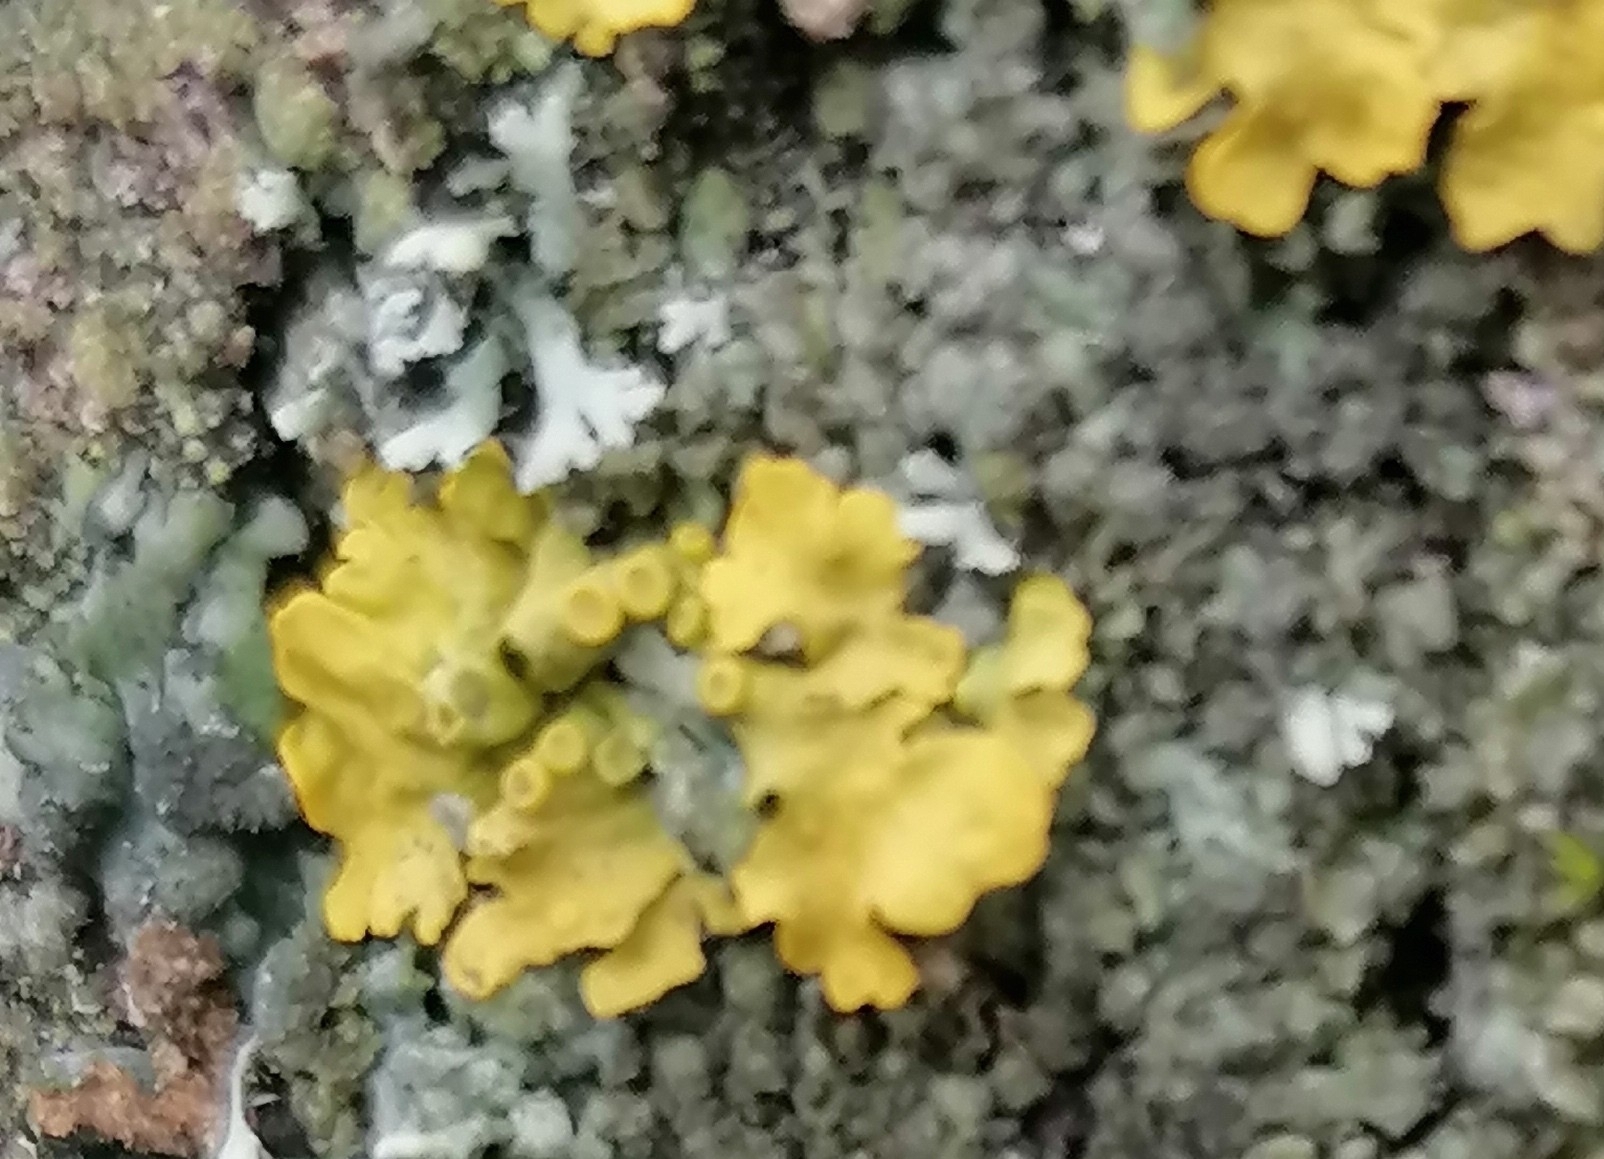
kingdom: Fungi
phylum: Ascomycota
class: Lecanoromycetes
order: Teloschistales
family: Teloschistaceae
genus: Xanthoria
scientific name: Xanthoria parietina
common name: Common orange lichen
